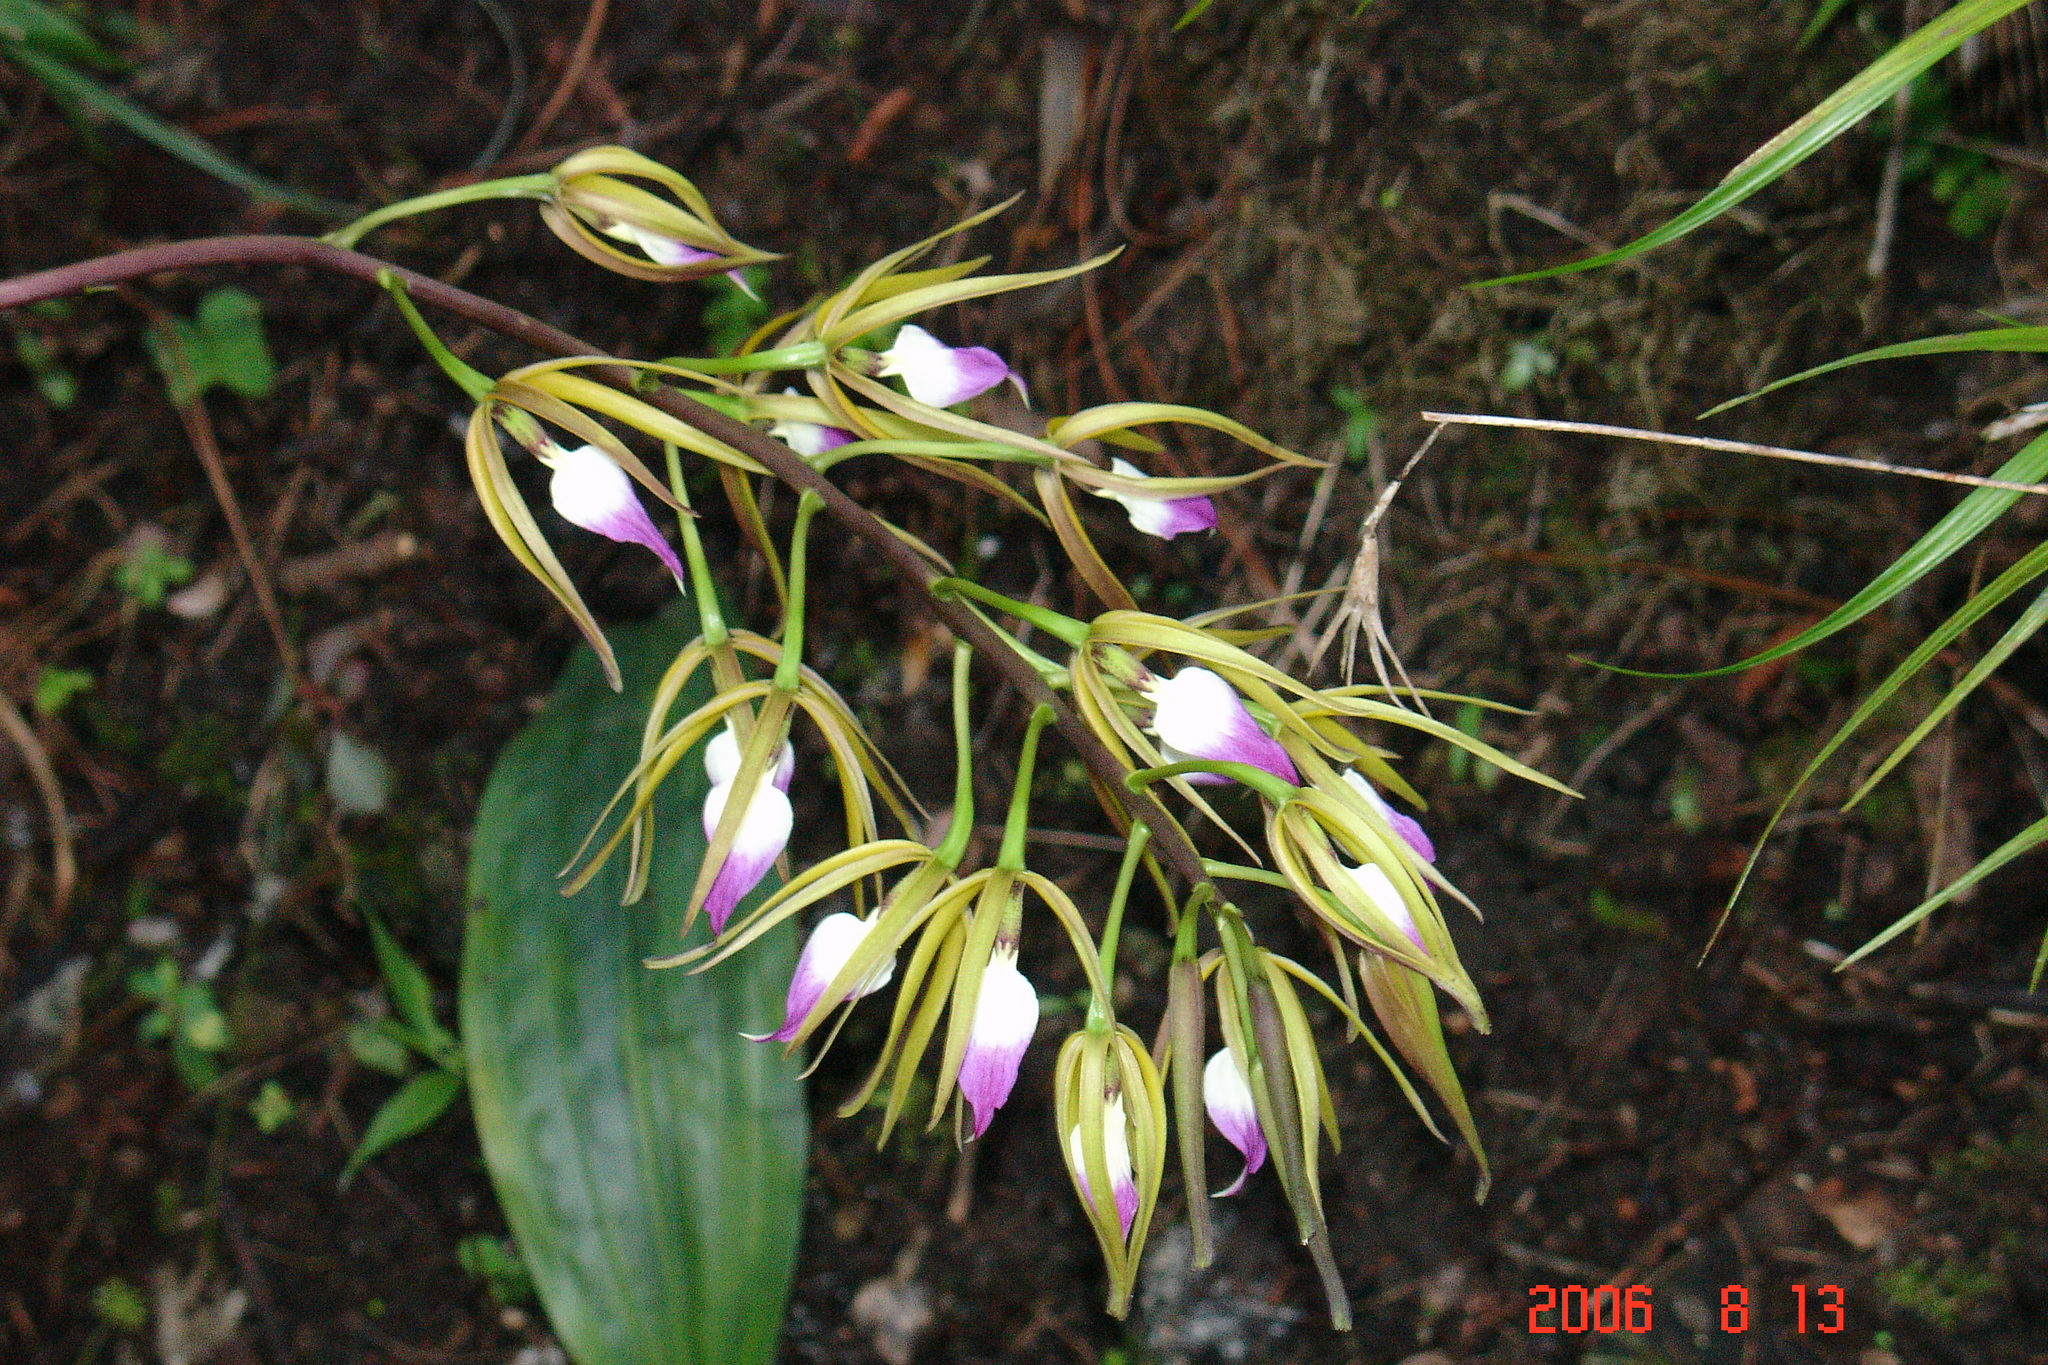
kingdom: Plantae
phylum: Tracheophyta
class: Liliopsida
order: Asparagales
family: Orchidaceae
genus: Prosthechea
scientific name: Prosthechea brassavolae
